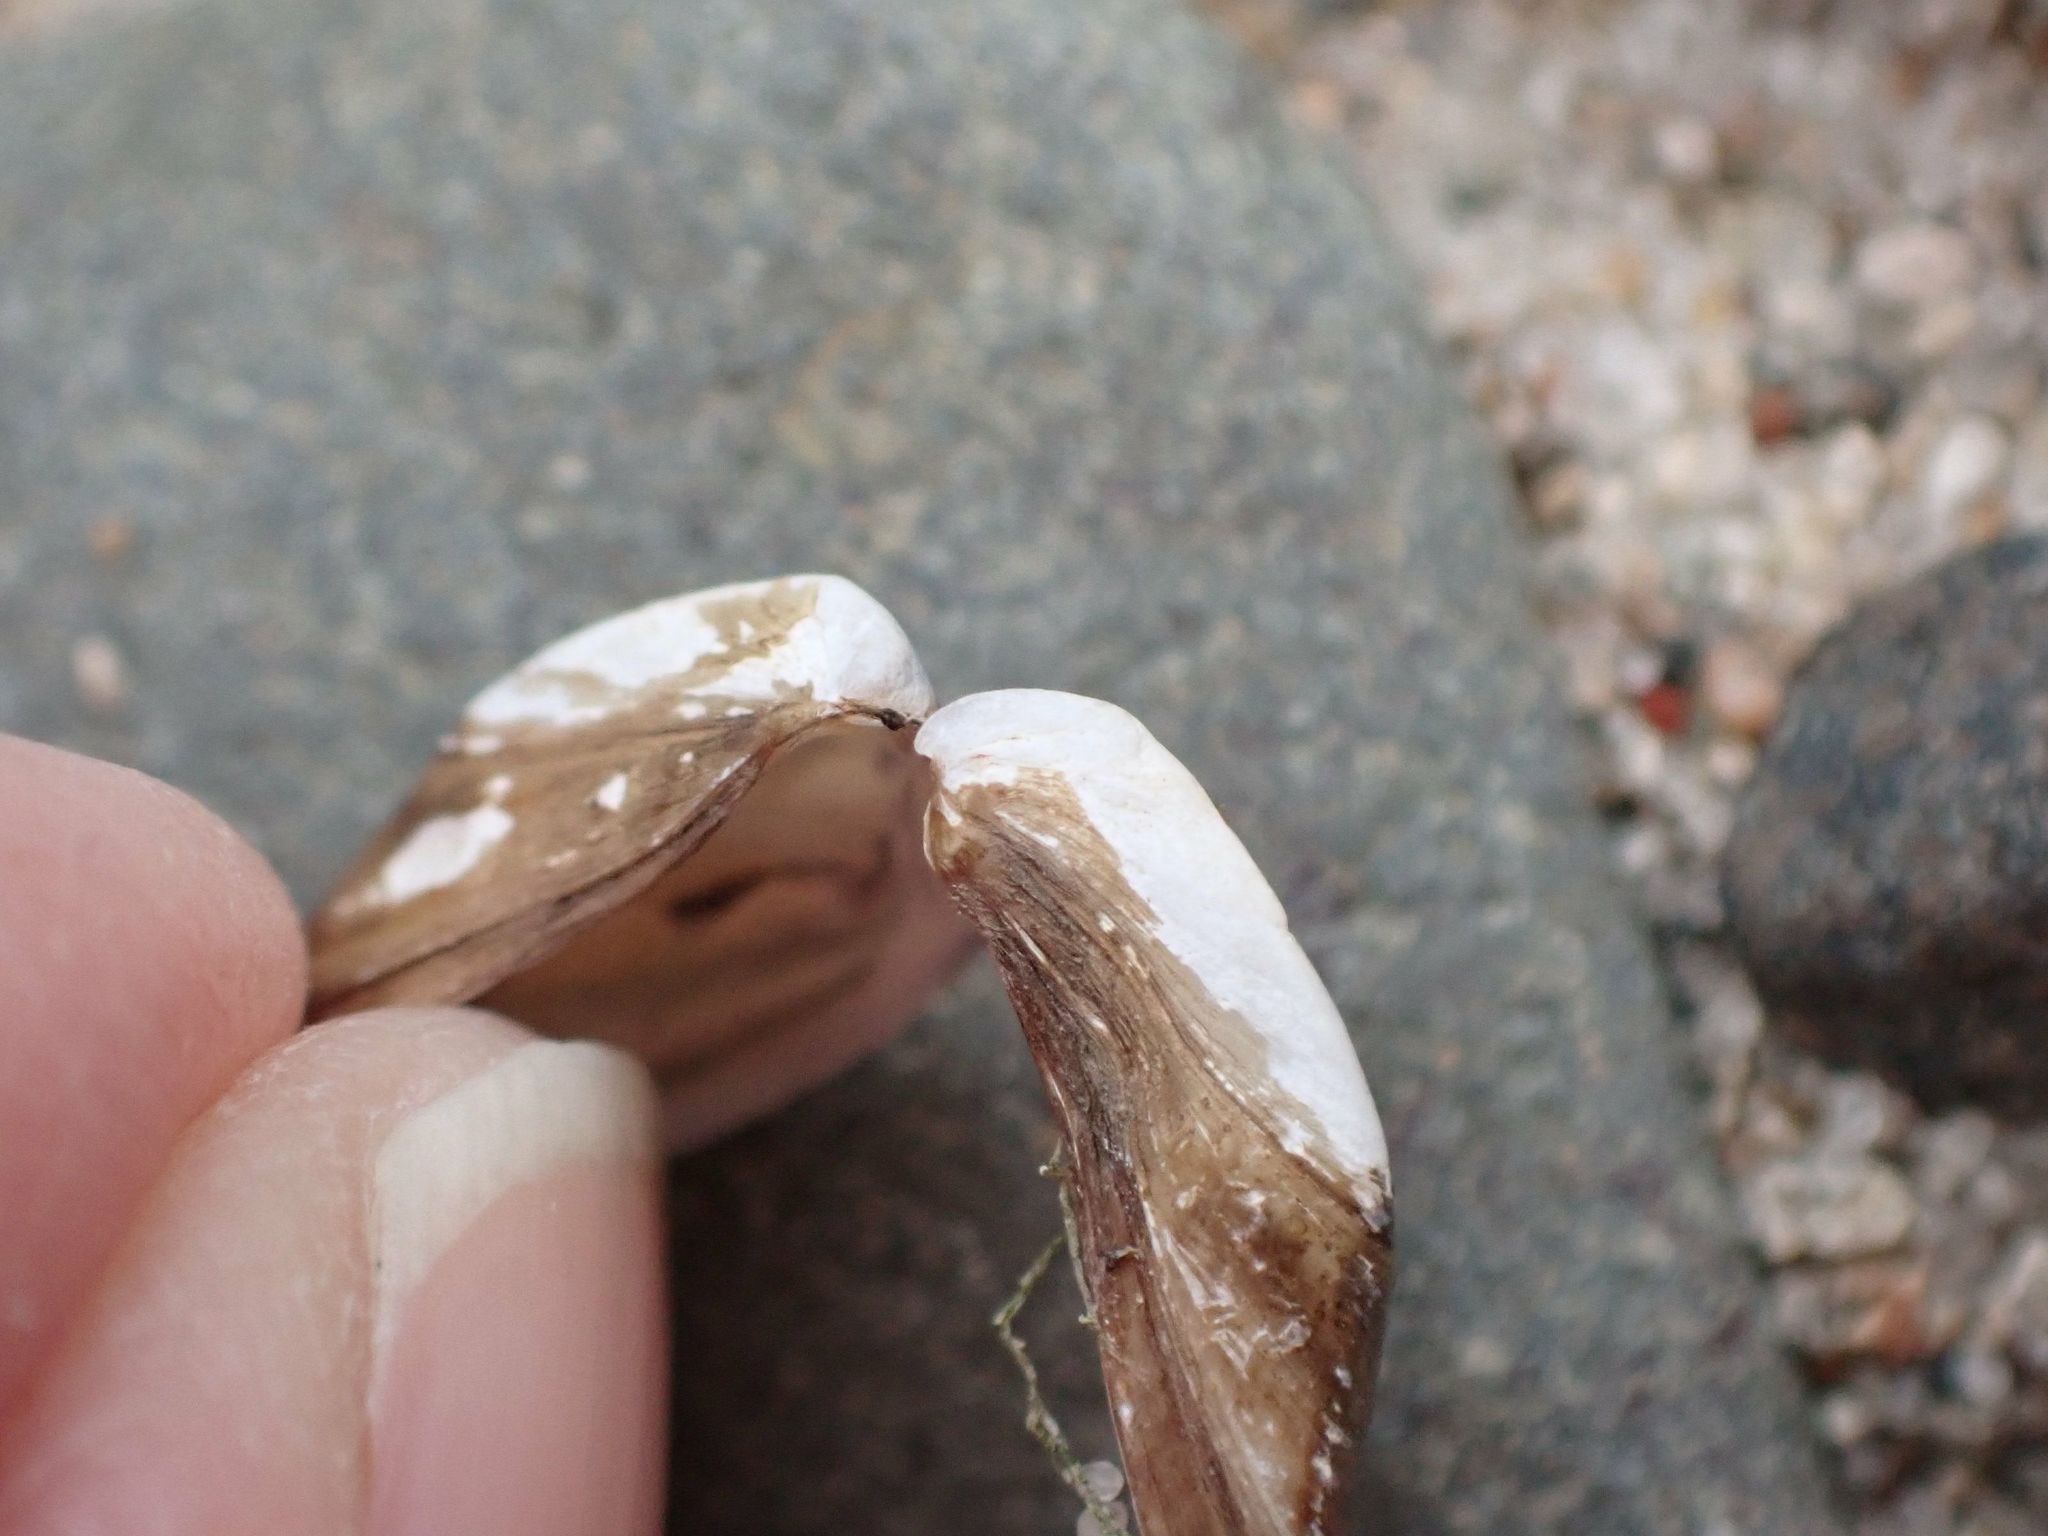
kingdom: Animalia
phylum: Mollusca
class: Bivalvia
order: Myida
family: Dreissenidae
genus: Dreissena
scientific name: Dreissena polymorpha
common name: Zebra mussel
